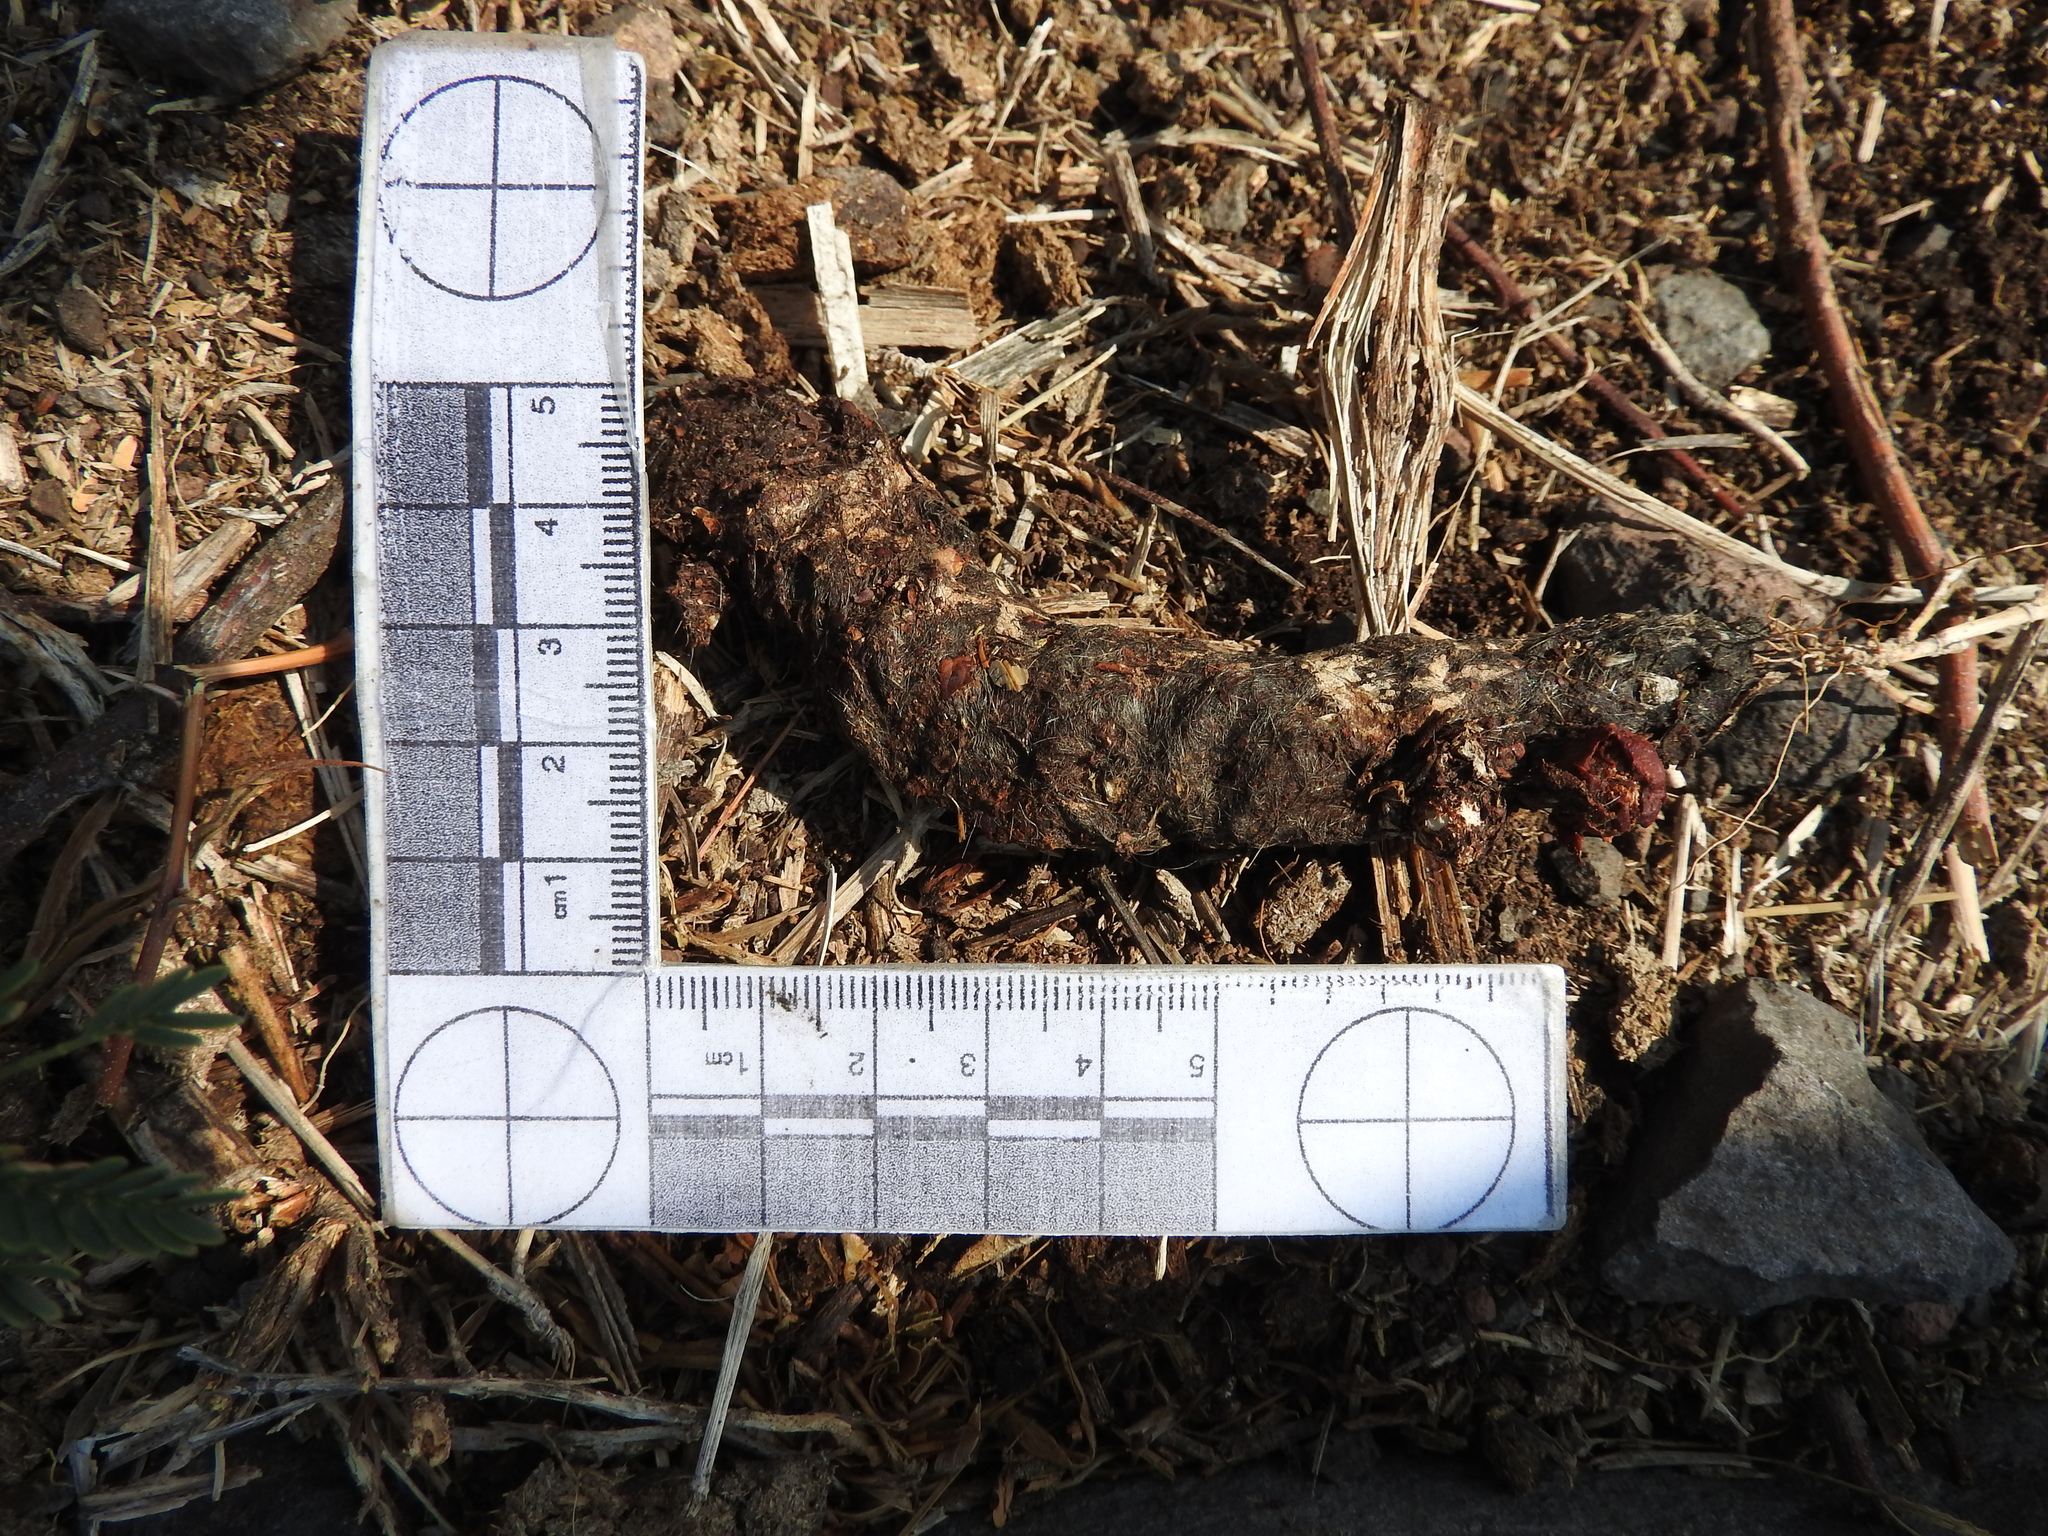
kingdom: Animalia
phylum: Chordata
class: Mammalia
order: Carnivora
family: Canidae
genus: Canis
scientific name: Canis latrans
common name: Coyote
